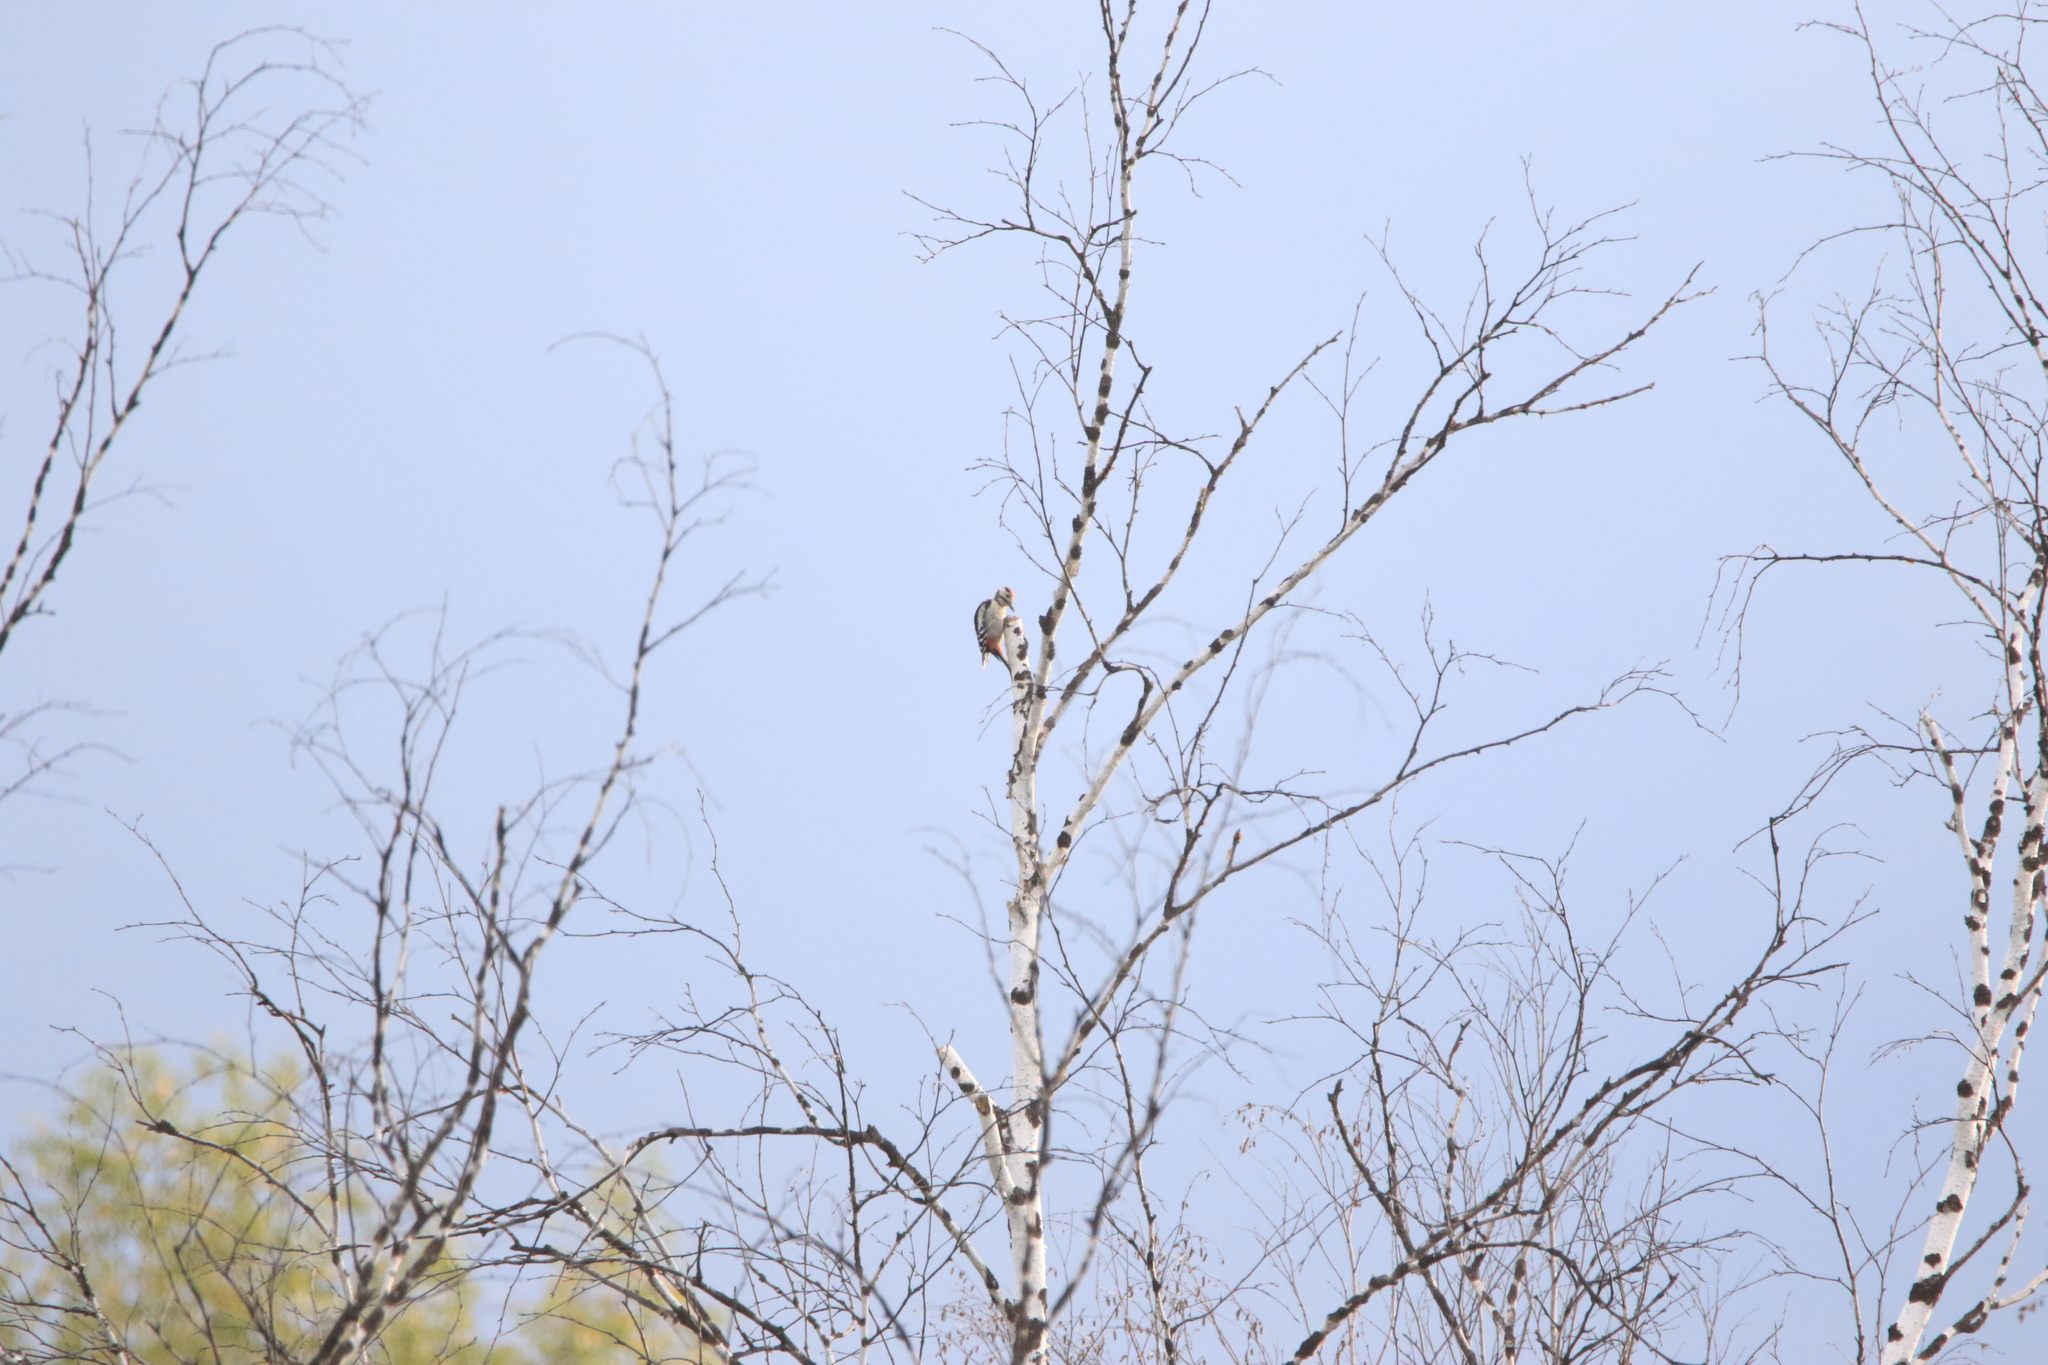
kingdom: Animalia
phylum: Chordata
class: Aves
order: Piciformes
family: Picidae
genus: Dendrocopos
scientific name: Dendrocopos major
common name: Great spotted woodpecker
